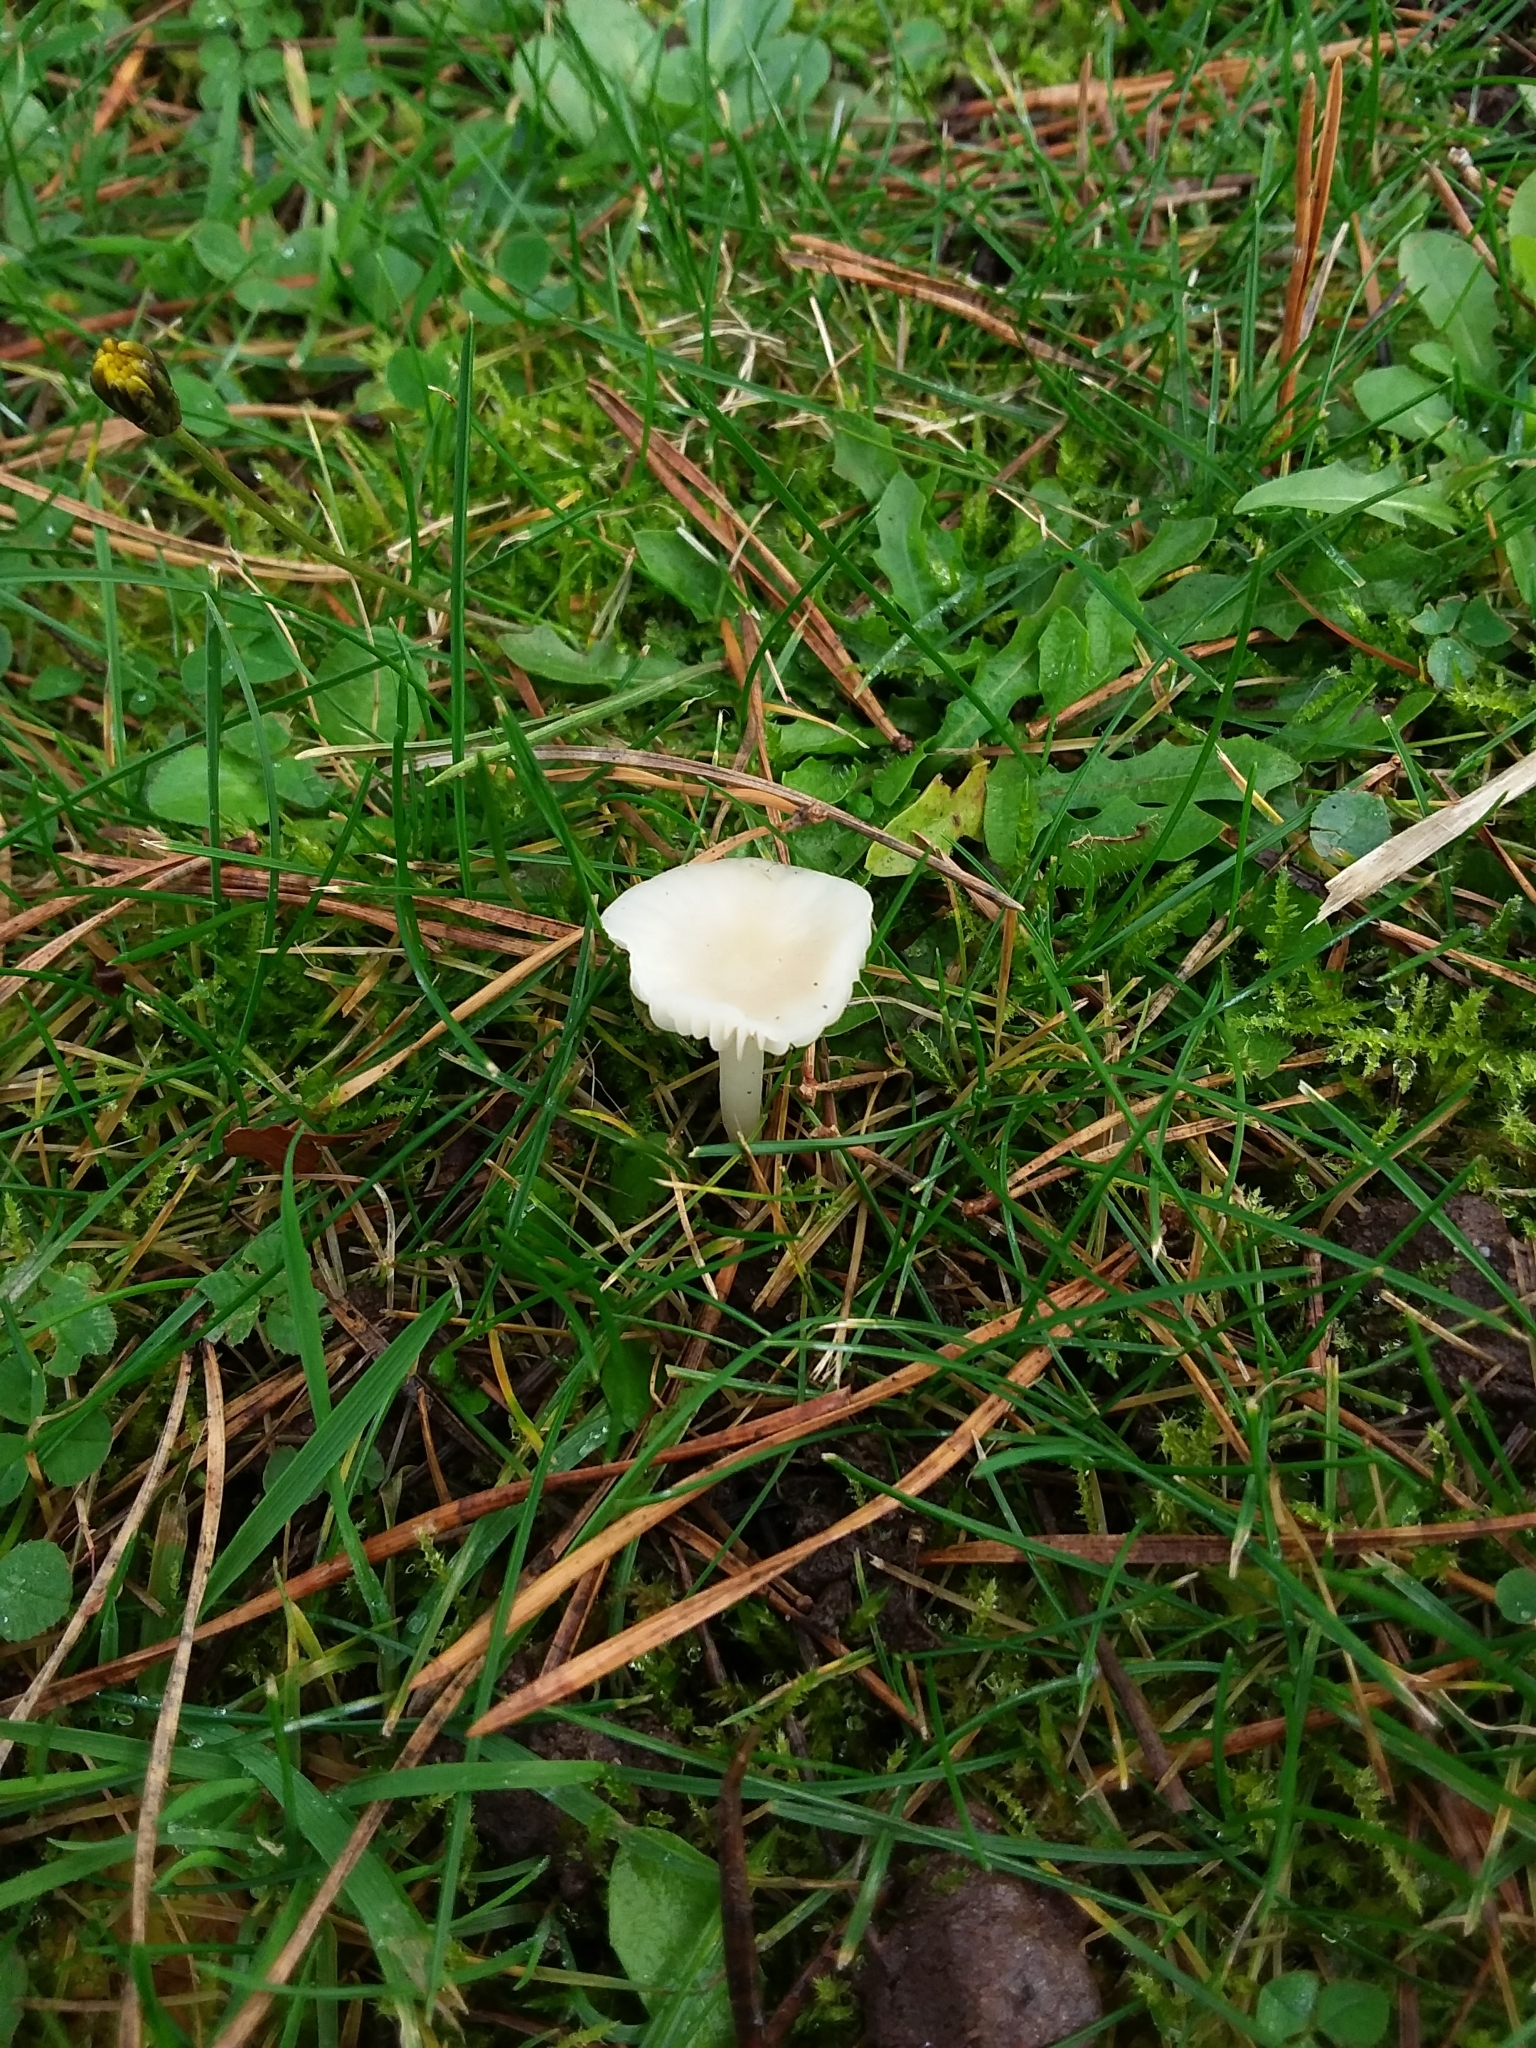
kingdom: Fungi
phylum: Basidiomycota
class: Agaricomycetes
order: Agaricales
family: Hygrophoraceae
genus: Cuphophyllus
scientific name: Cuphophyllus virgineus
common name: Snowy waxcap
